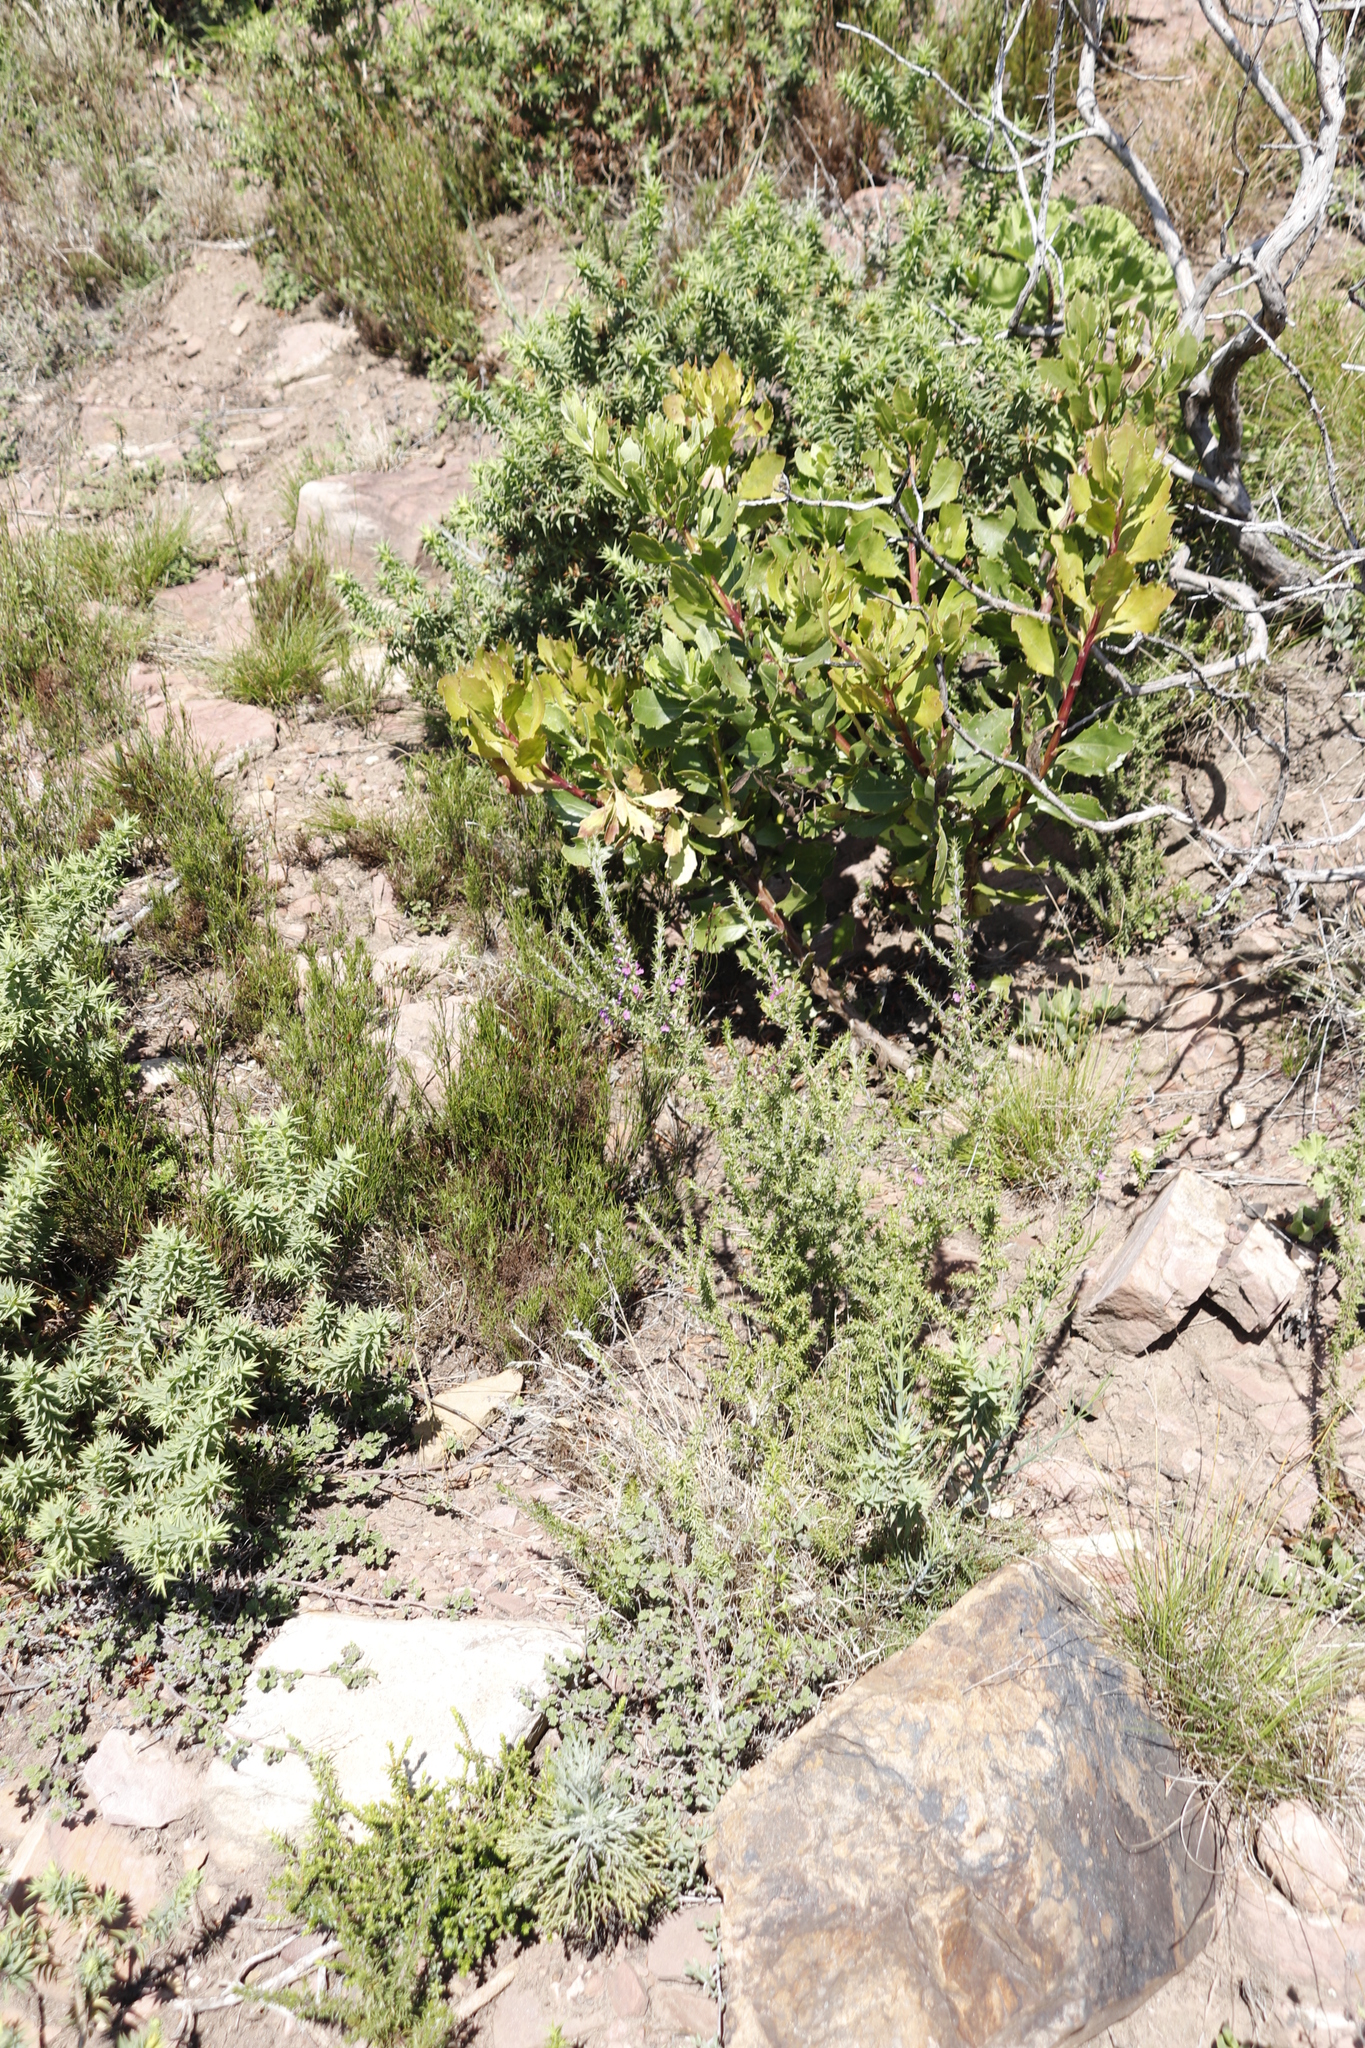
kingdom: Plantae
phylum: Tracheophyta
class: Magnoliopsida
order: Asterales
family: Asteraceae
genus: Osteospermum
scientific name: Osteospermum moniliferum
